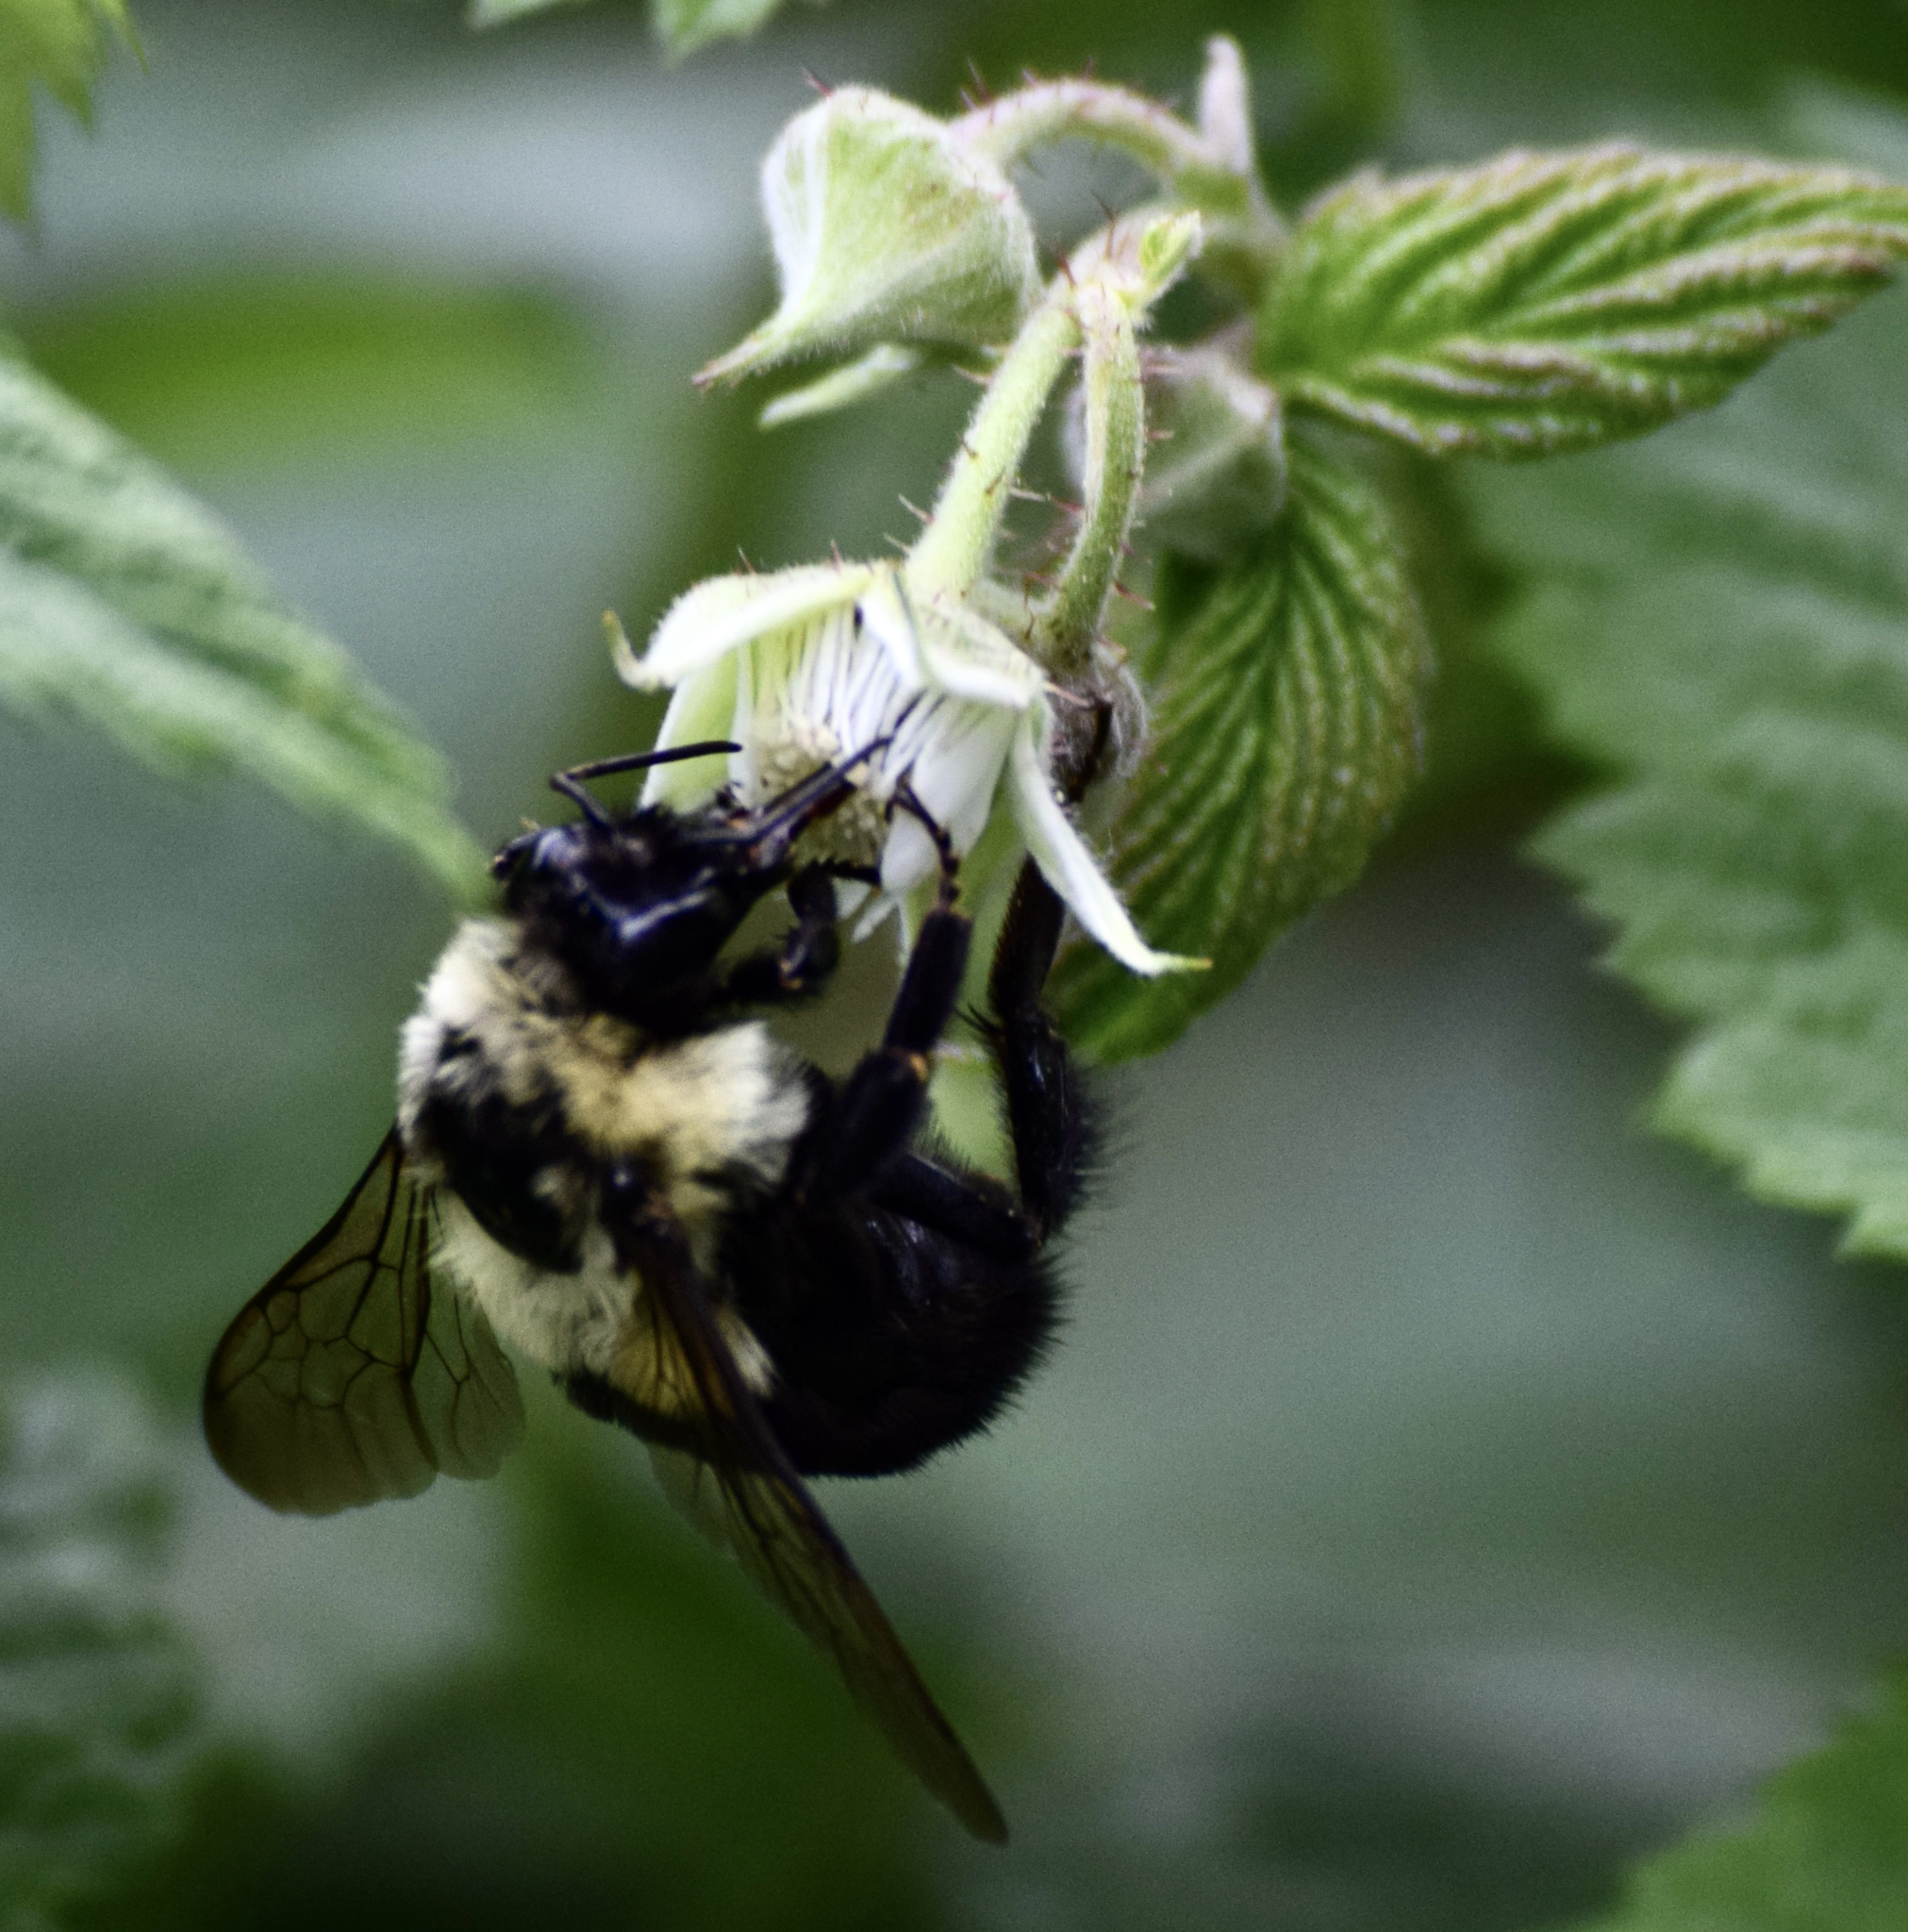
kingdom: Animalia
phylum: Arthropoda
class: Insecta
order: Hymenoptera
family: Apidae
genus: Bombus
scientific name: Bombus impatiens
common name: Common eastern bumble bee
